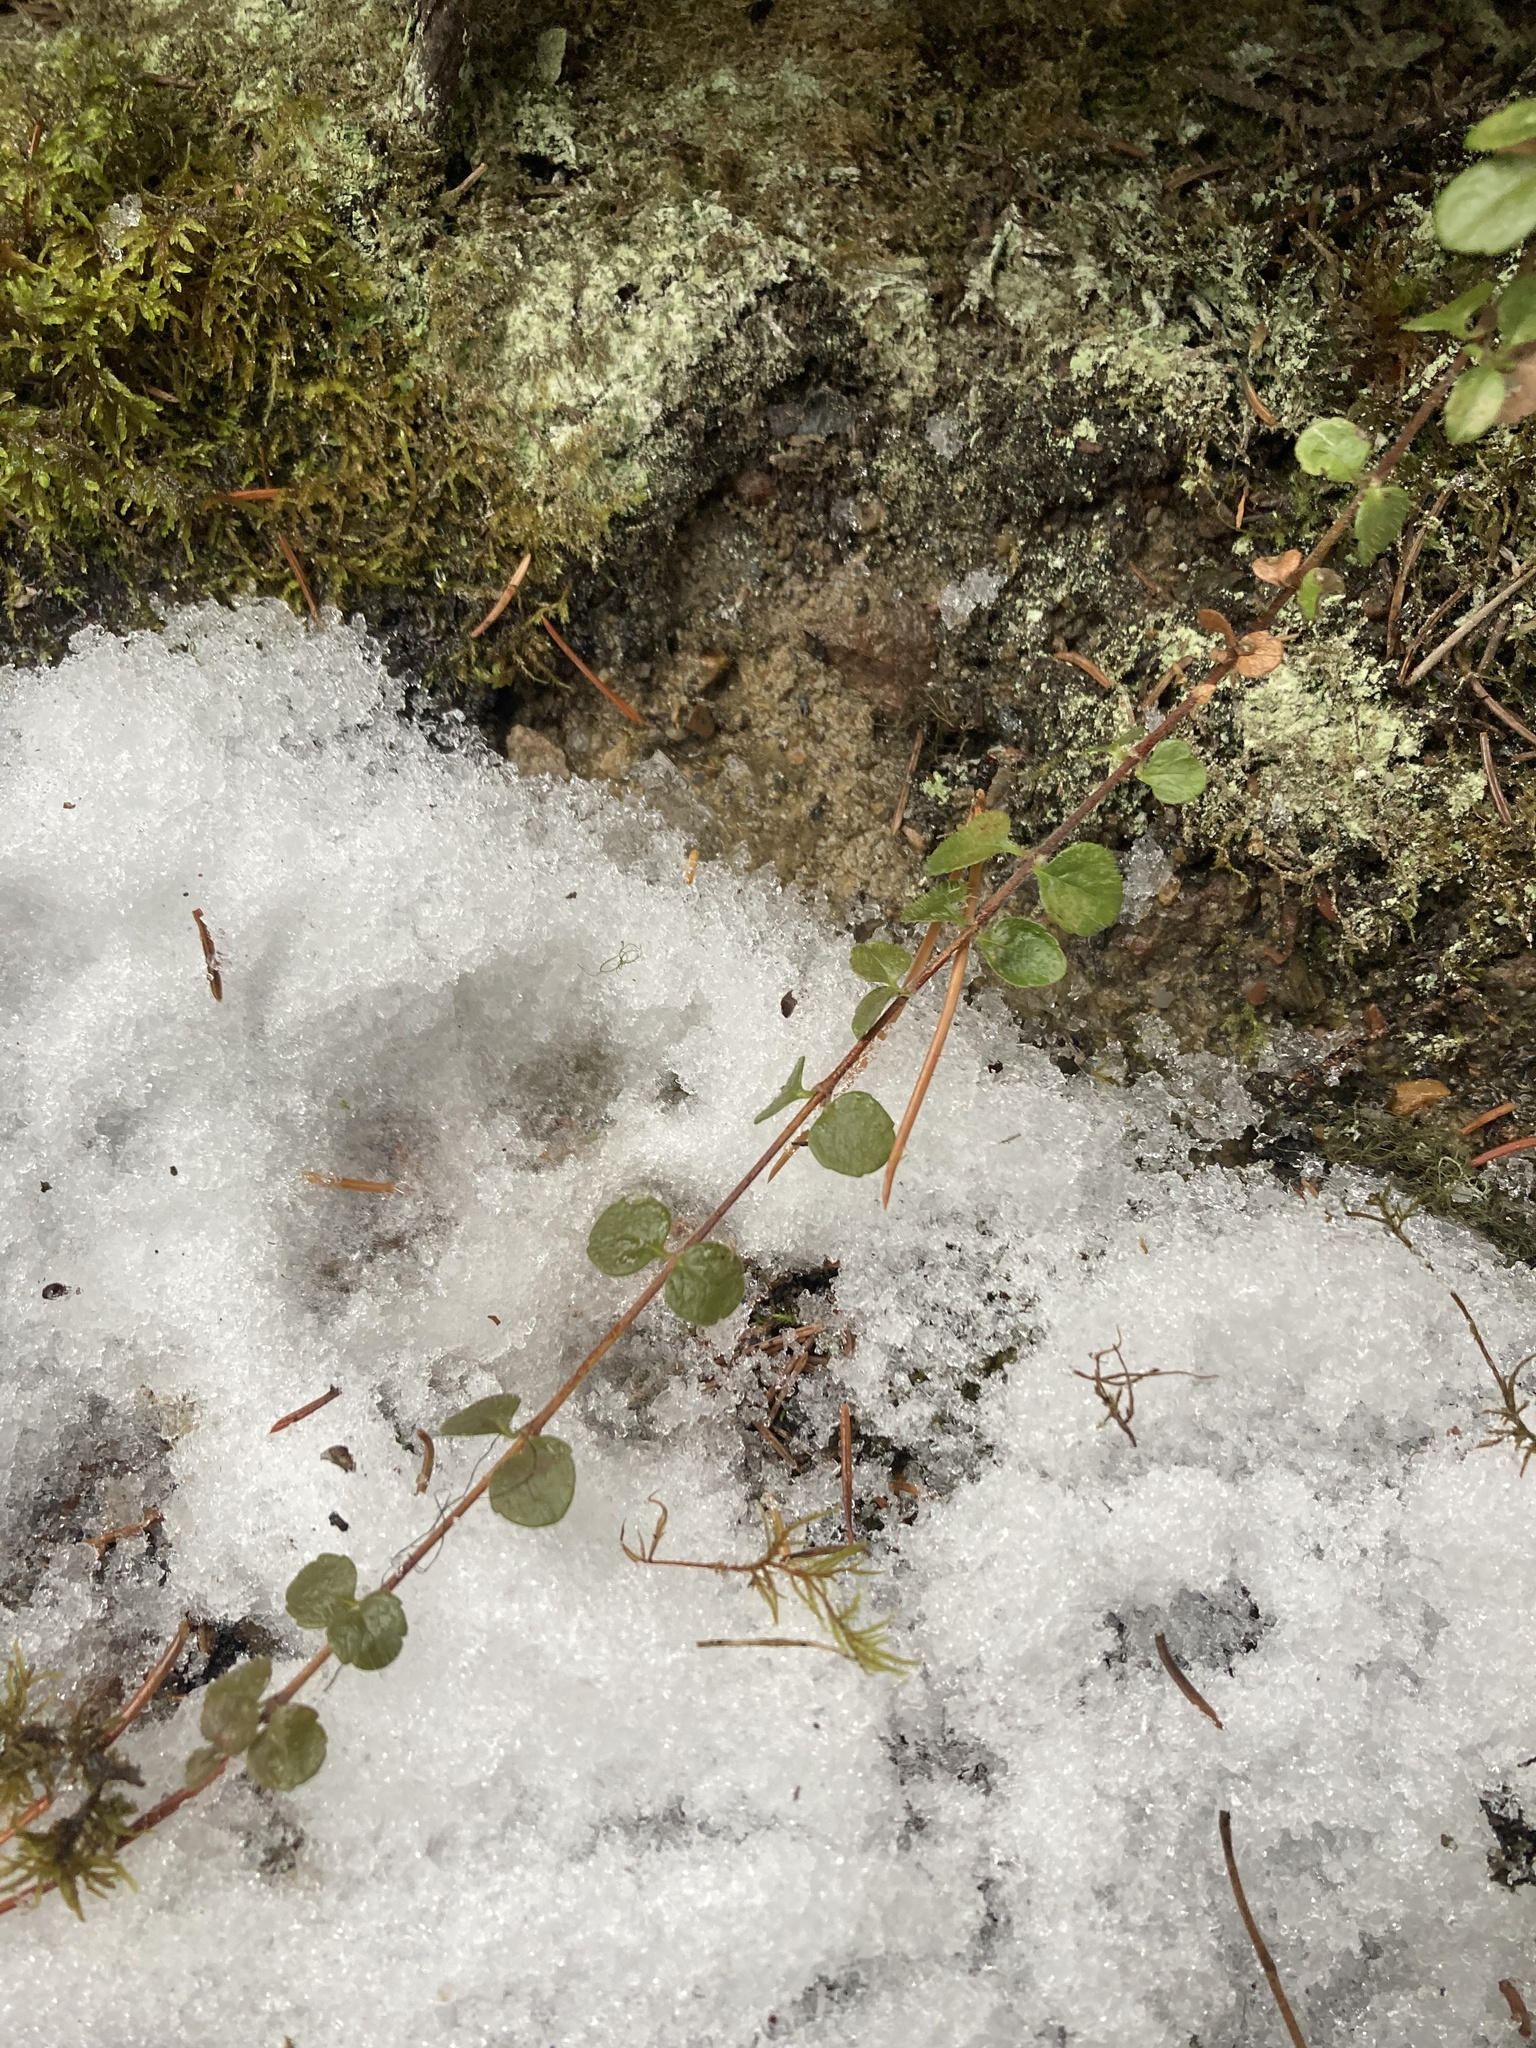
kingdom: Plantae
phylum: Tracheophyta
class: Magnoliopsida
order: Dipsacales
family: Caprifoliaceae
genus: Linnaea
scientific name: Linnaea borealis
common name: Twinflower
